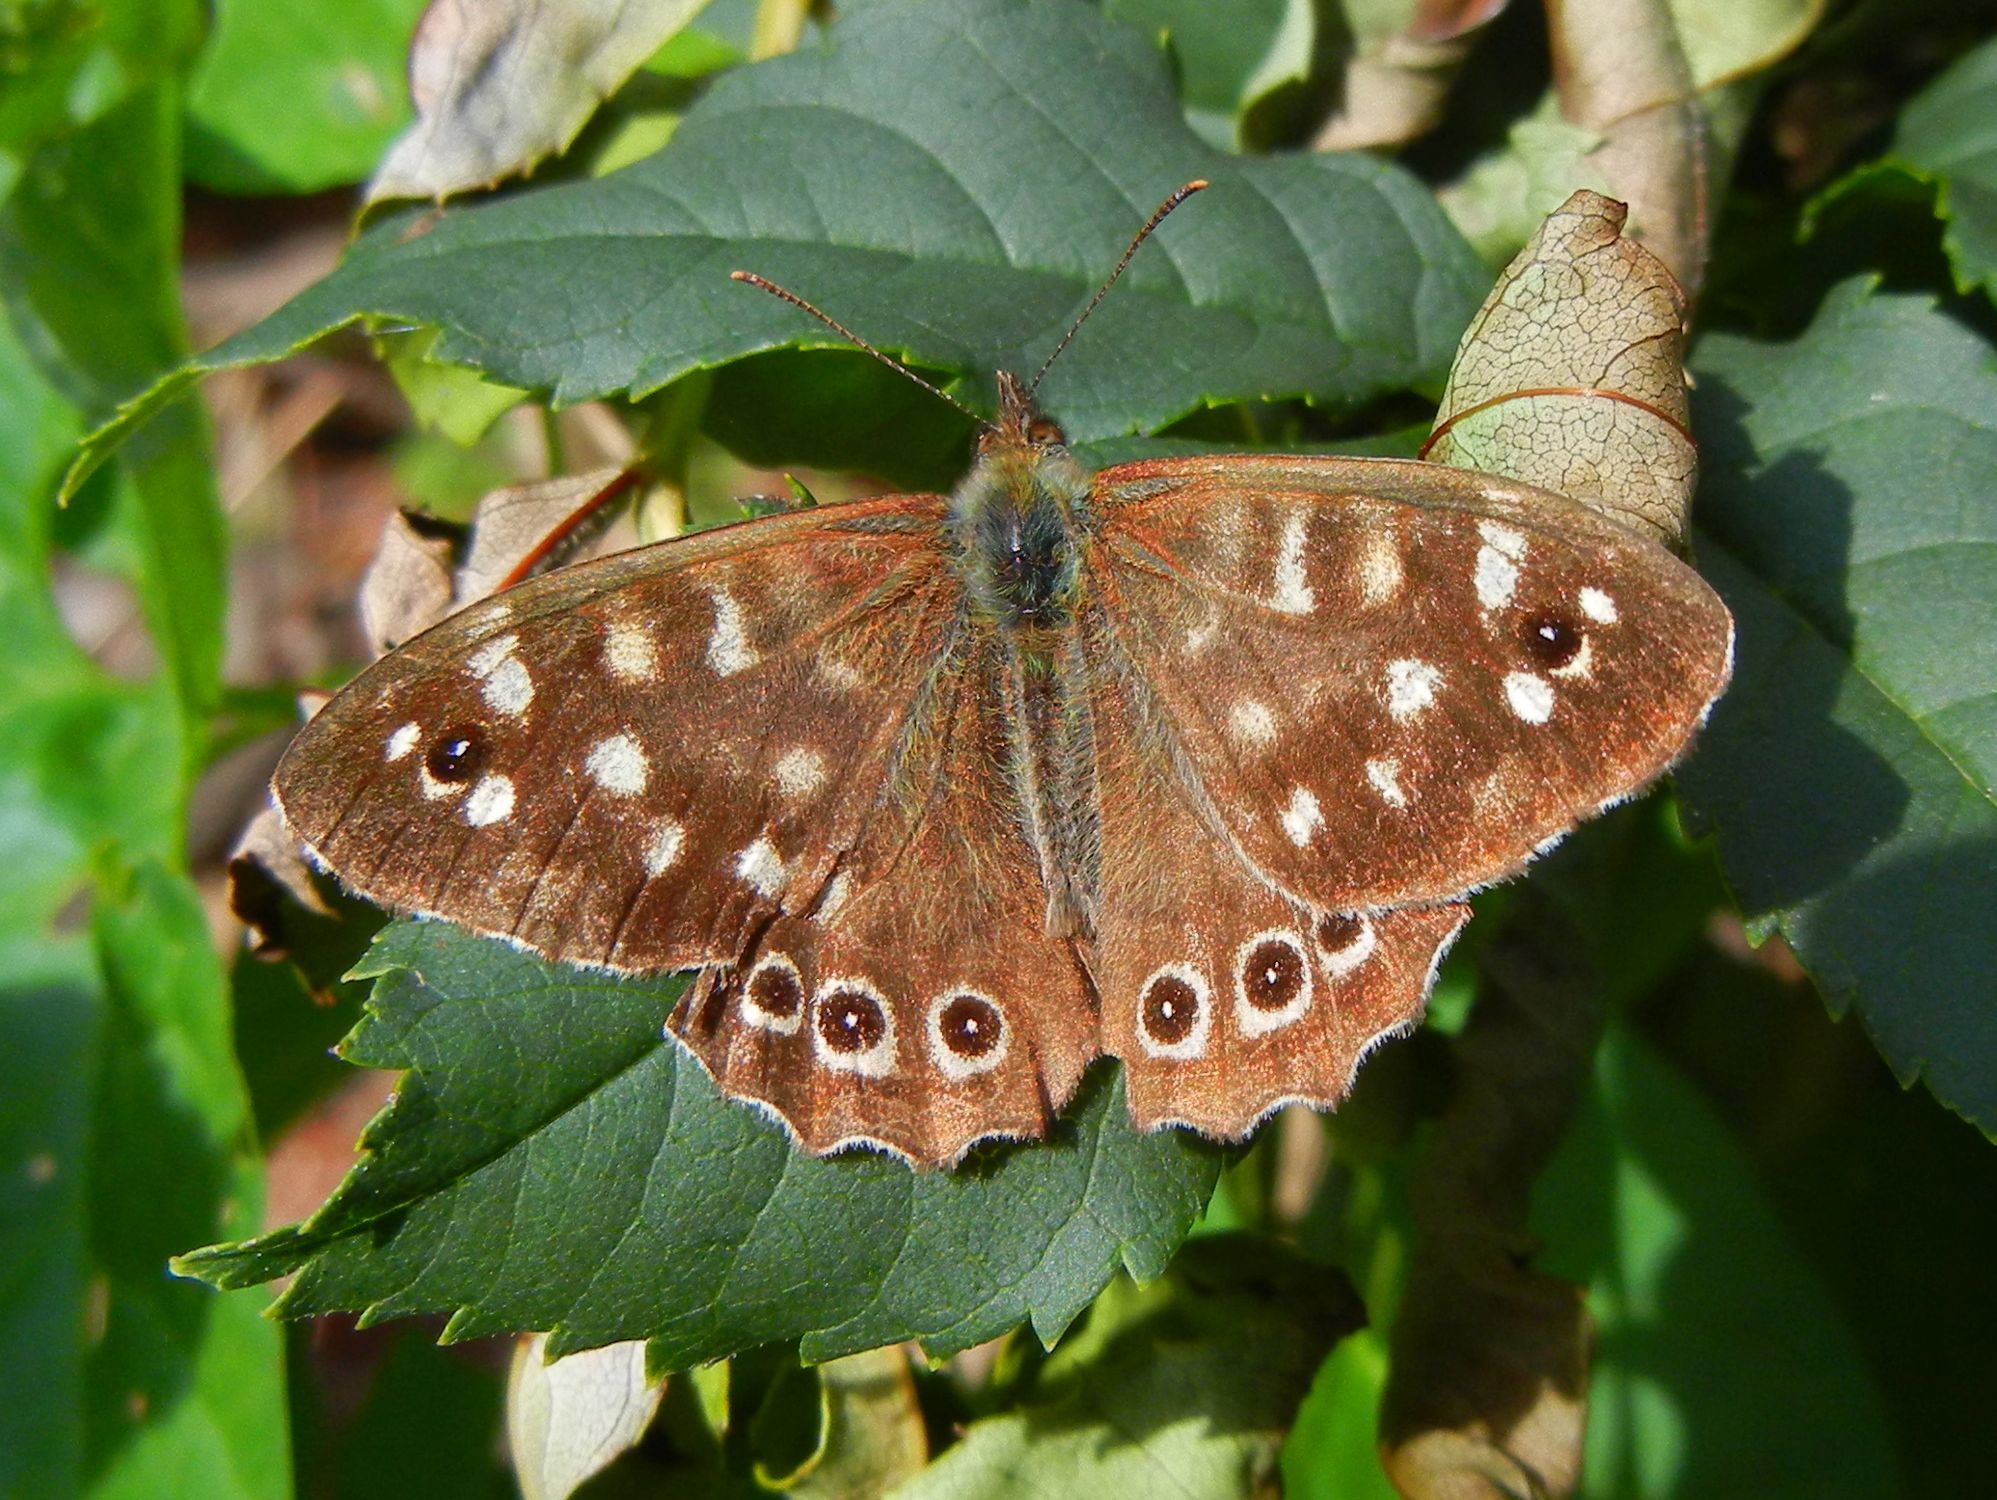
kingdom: Animalia
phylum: Arthropoda
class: Insecta
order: Lepidoptera
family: Nymphalidae
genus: Pararge
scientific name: Pararge aegeria
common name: Speckled wood
